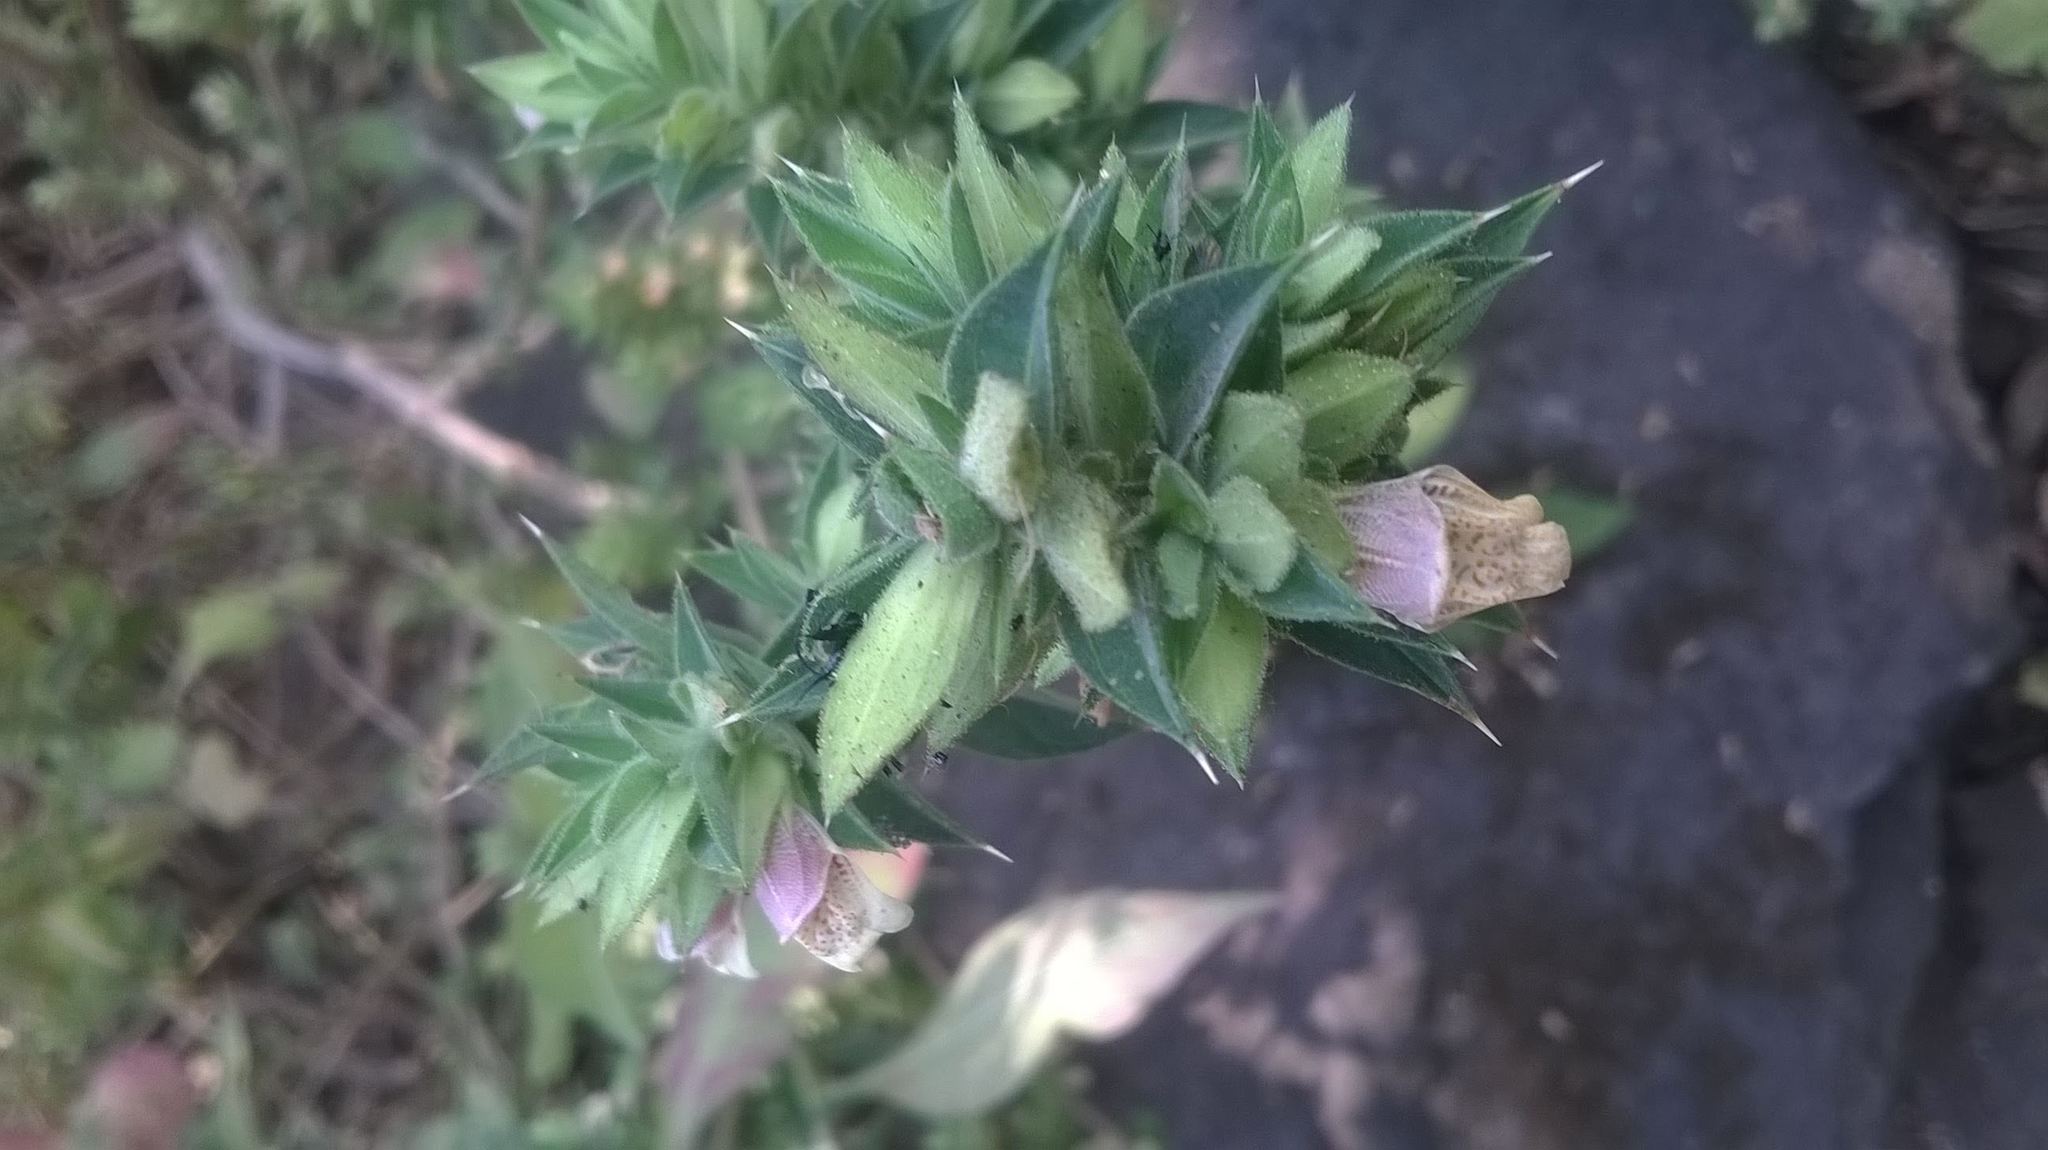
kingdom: Plantae
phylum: Tracheophyta
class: Magnoliopsida
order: Lamiales
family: Acanthaceae
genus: Lepidagathis
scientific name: Lepidagathis cuspidata
